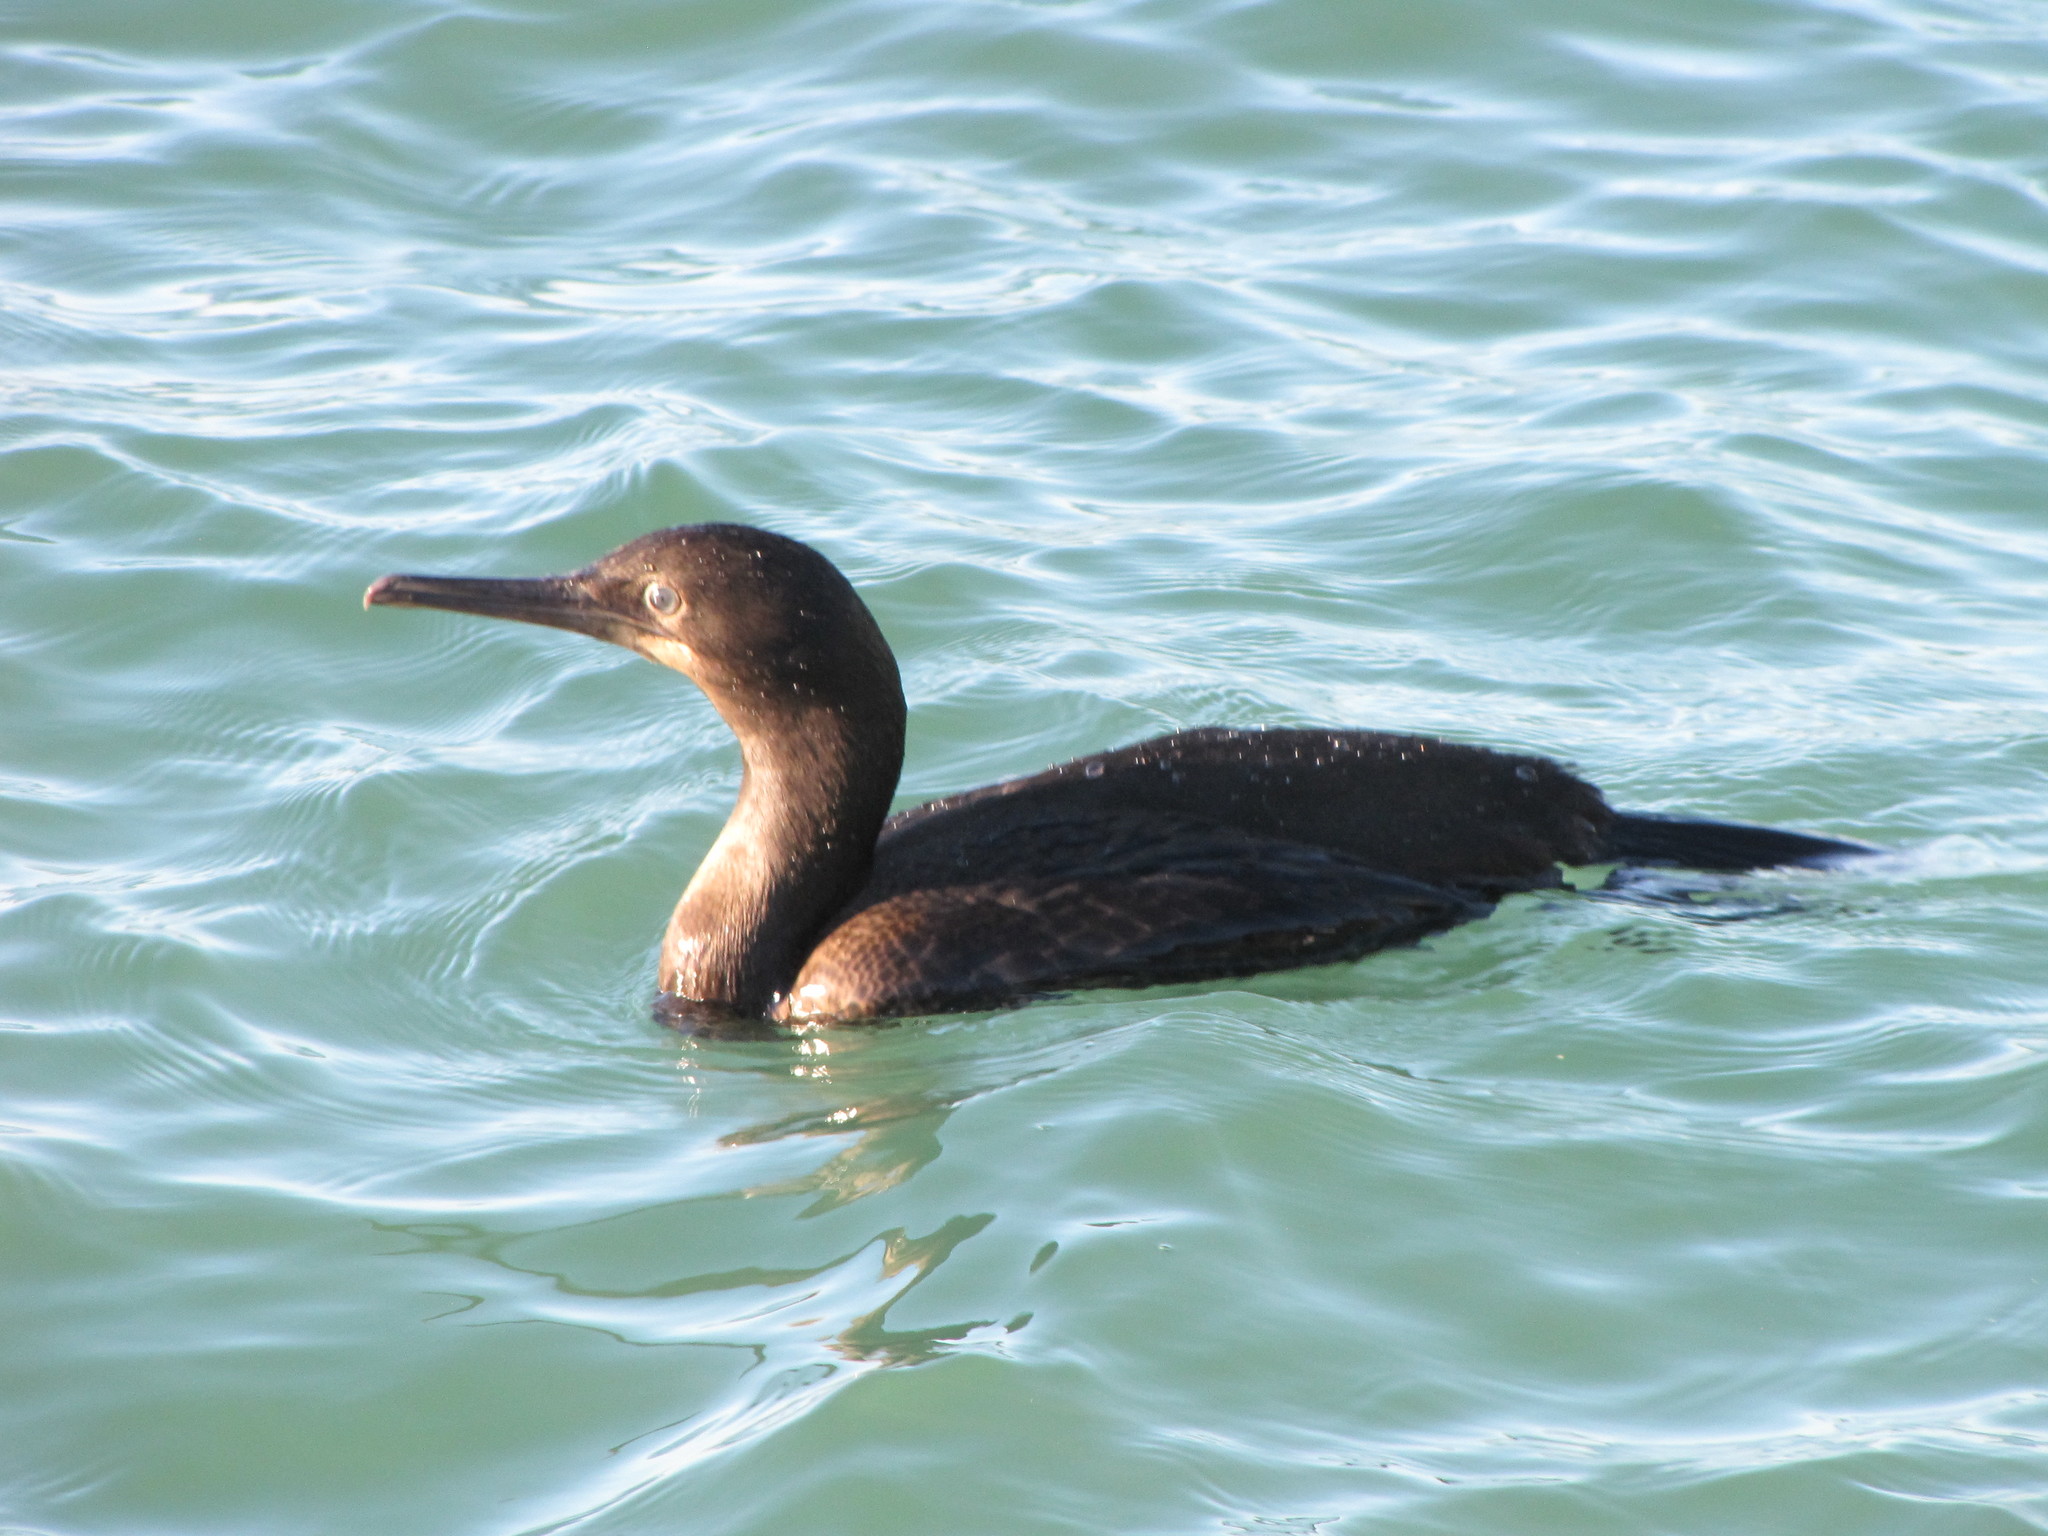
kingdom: Animalia
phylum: Chordata
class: Aves
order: Suliformes
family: Phalacrocoracidae
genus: Urile
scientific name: Urile penicillatus
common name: Brandt's cormorant
